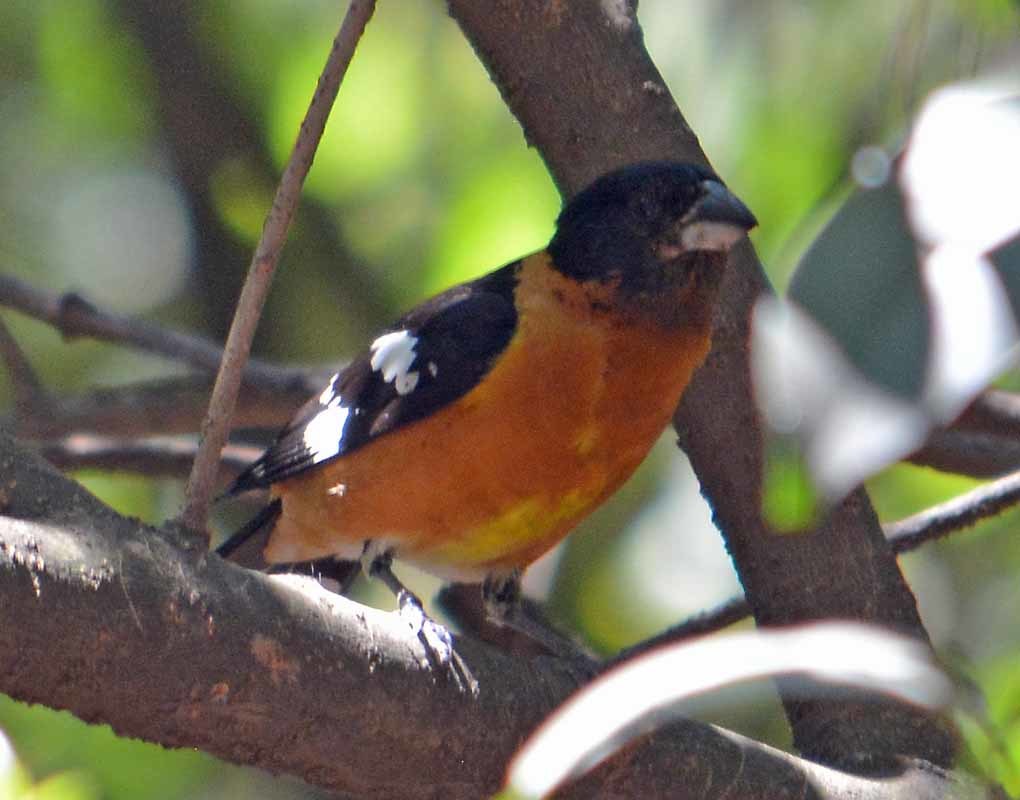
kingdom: Animalia
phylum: Chordata
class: Aves
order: Passeriformes
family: Cardinalidae
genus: Pheucticus
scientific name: Pheucticus melanocephalus
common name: Black-headed grosbeak
